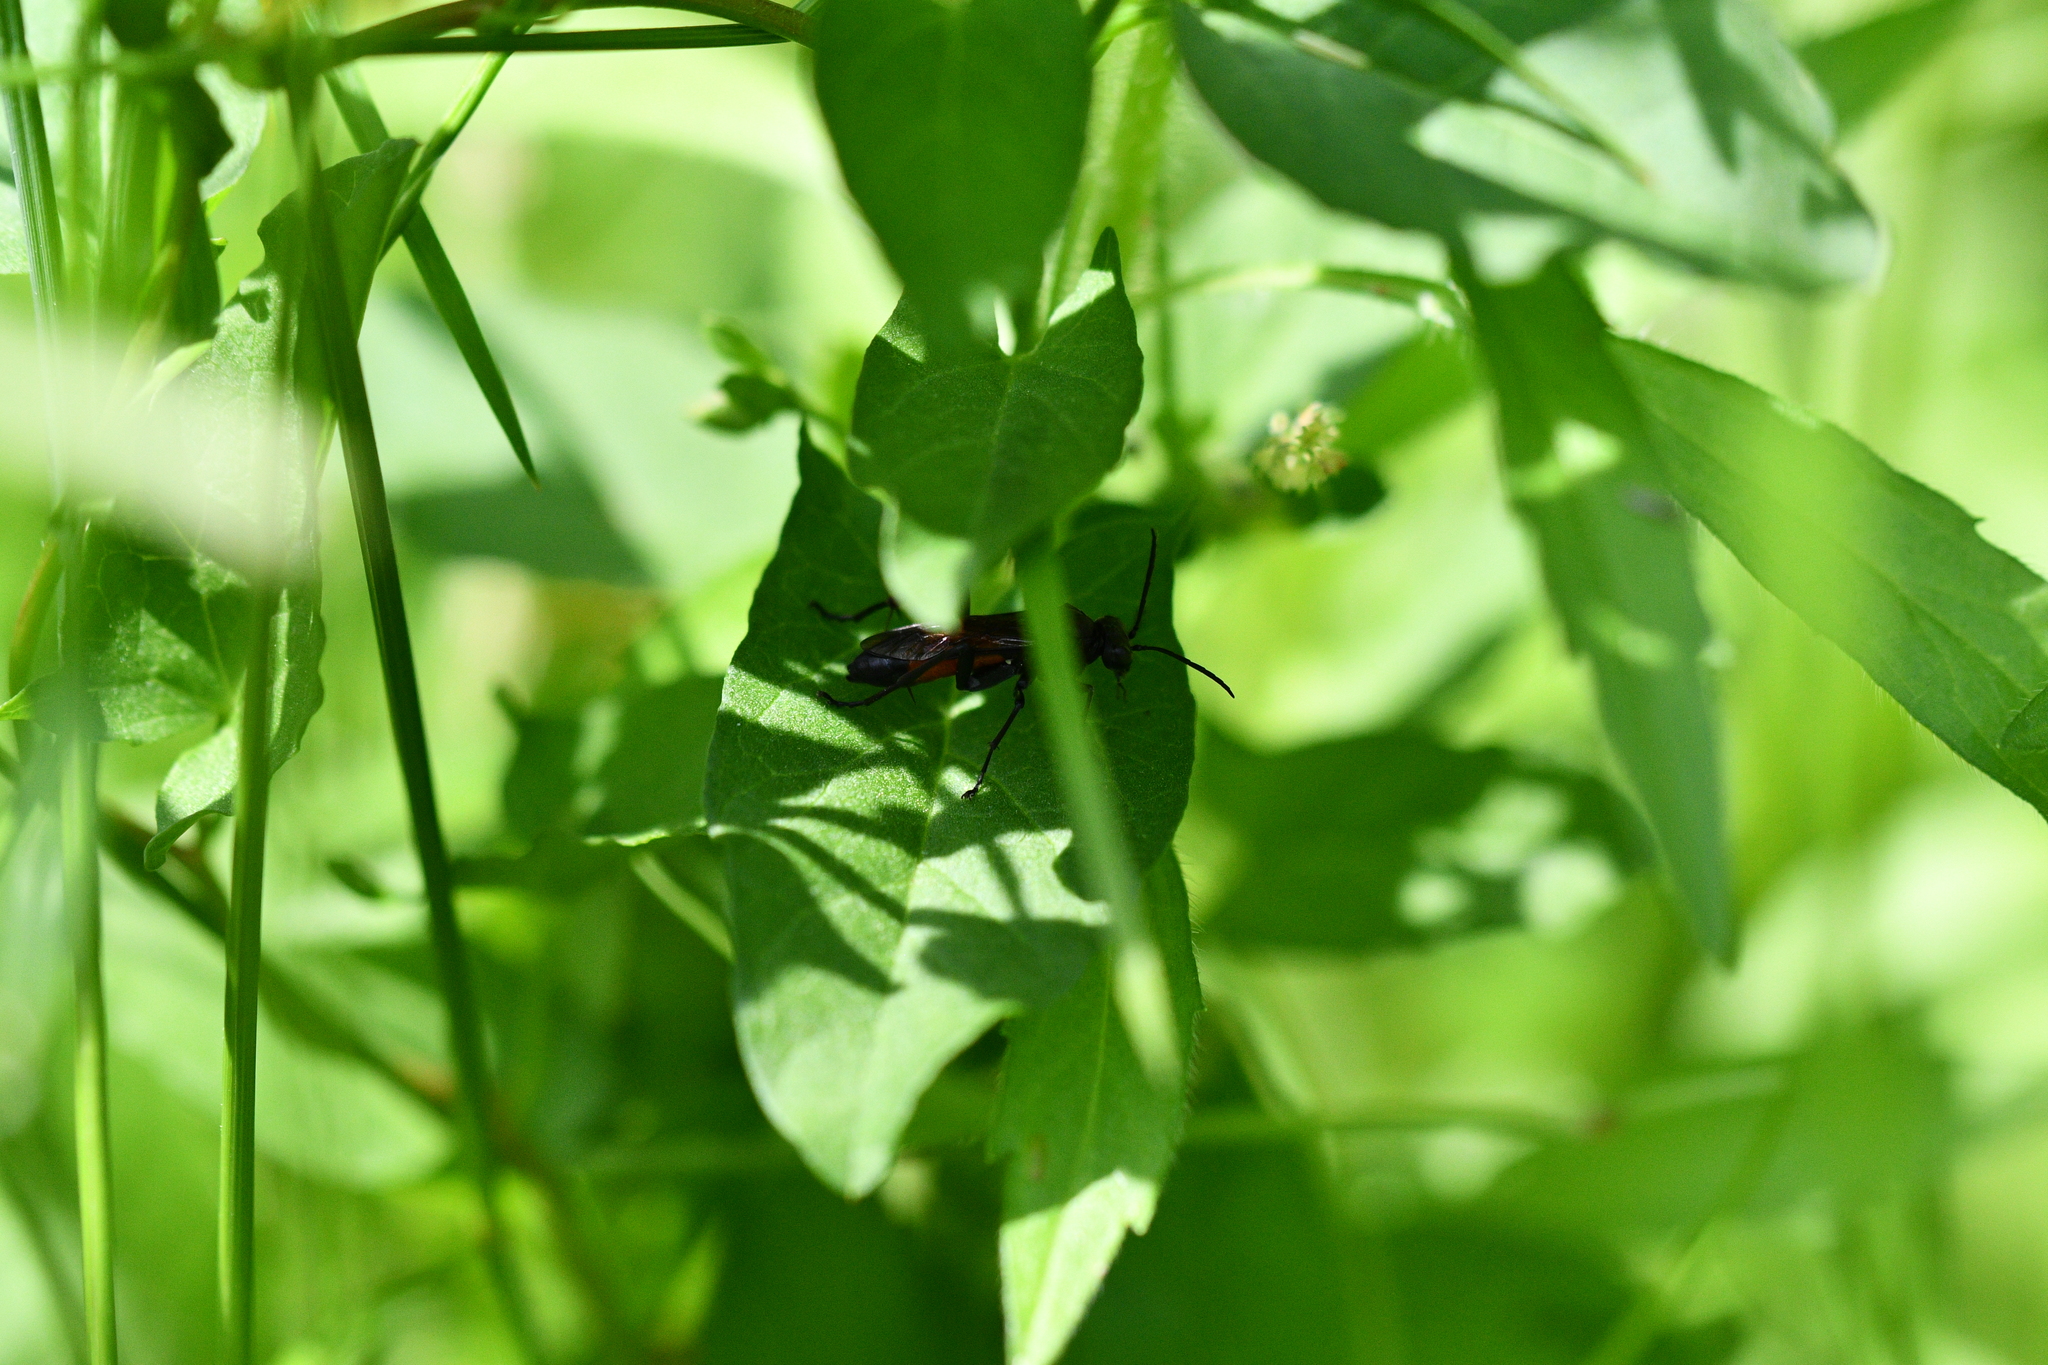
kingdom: Animalia
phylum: Arthropoda
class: Insecta
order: Hymenoptera
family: Tenthredinidae
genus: Macrophya
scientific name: Macrophya annulata
